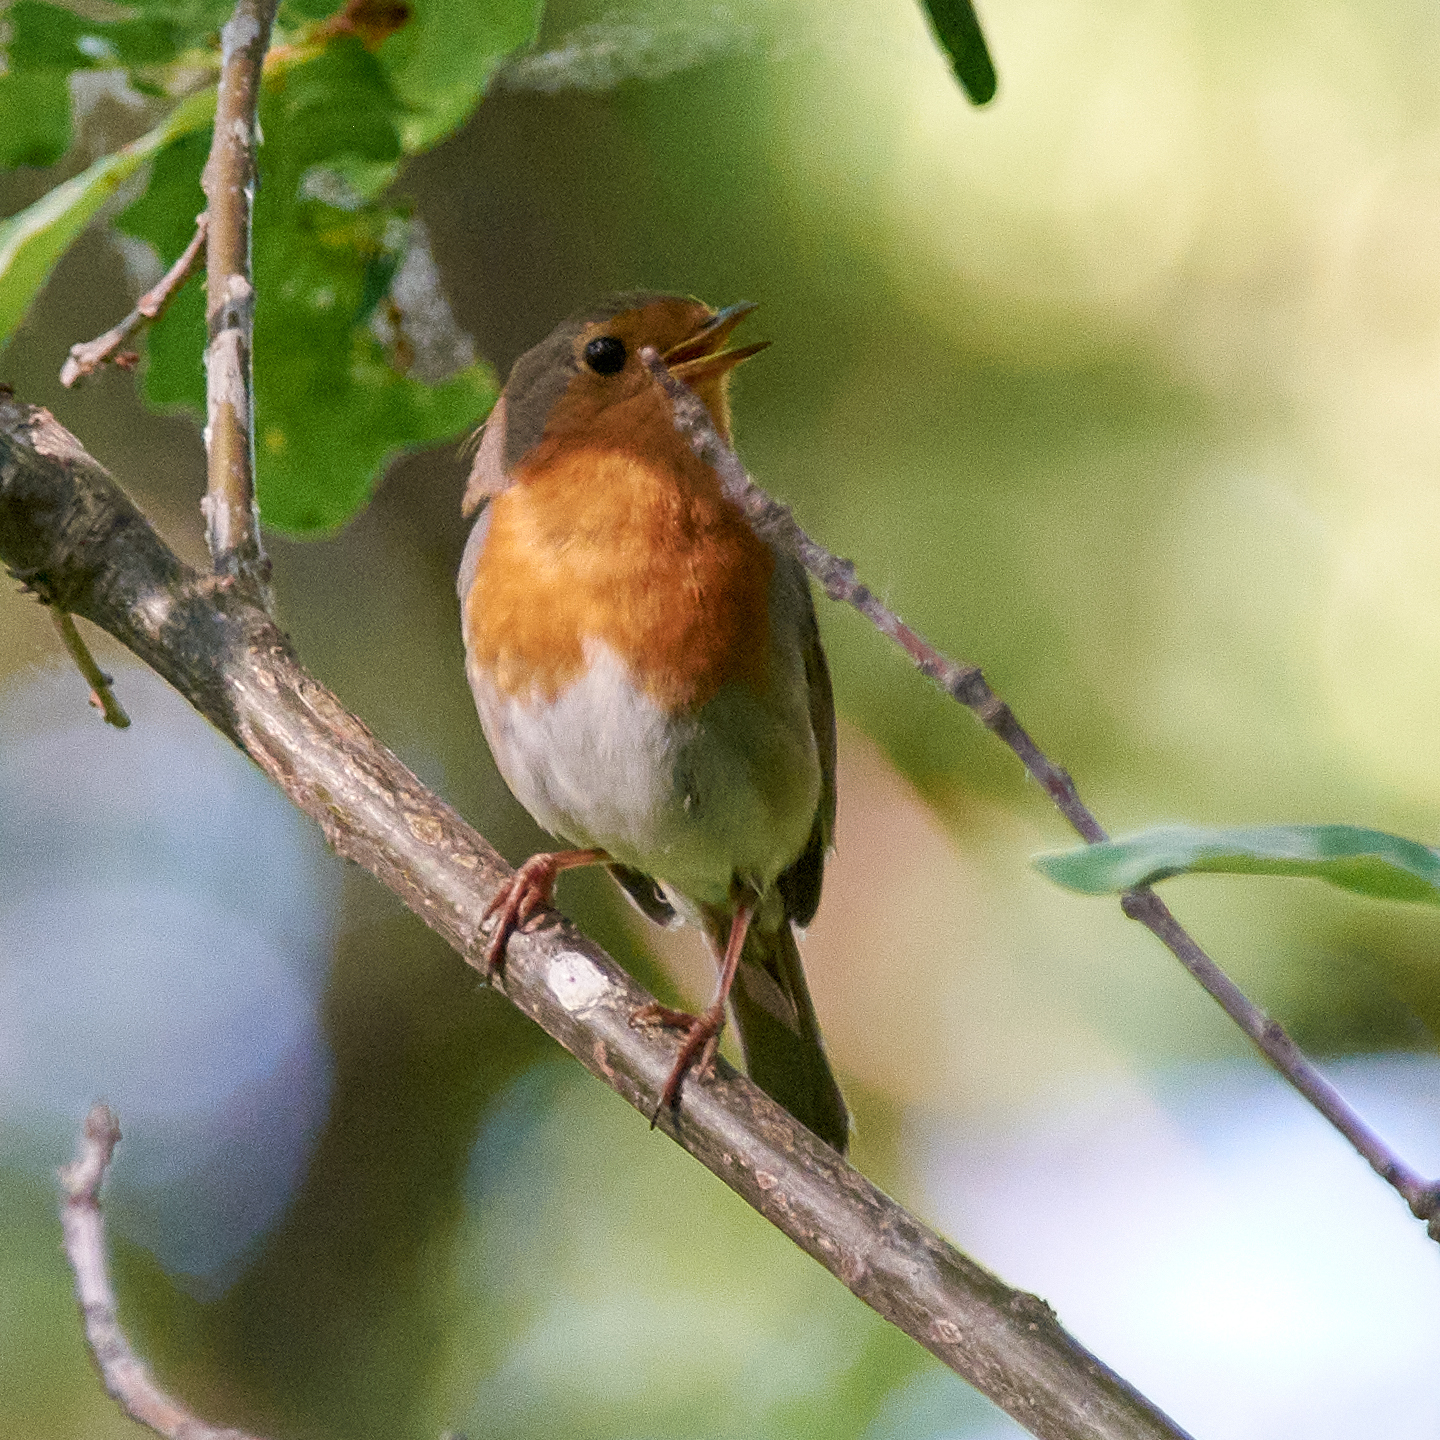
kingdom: Animalia
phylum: Chordata
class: Aves
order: Passeriformes
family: Muscicapidae
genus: Erithacus
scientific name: Erithacus rubecula
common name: European robin
